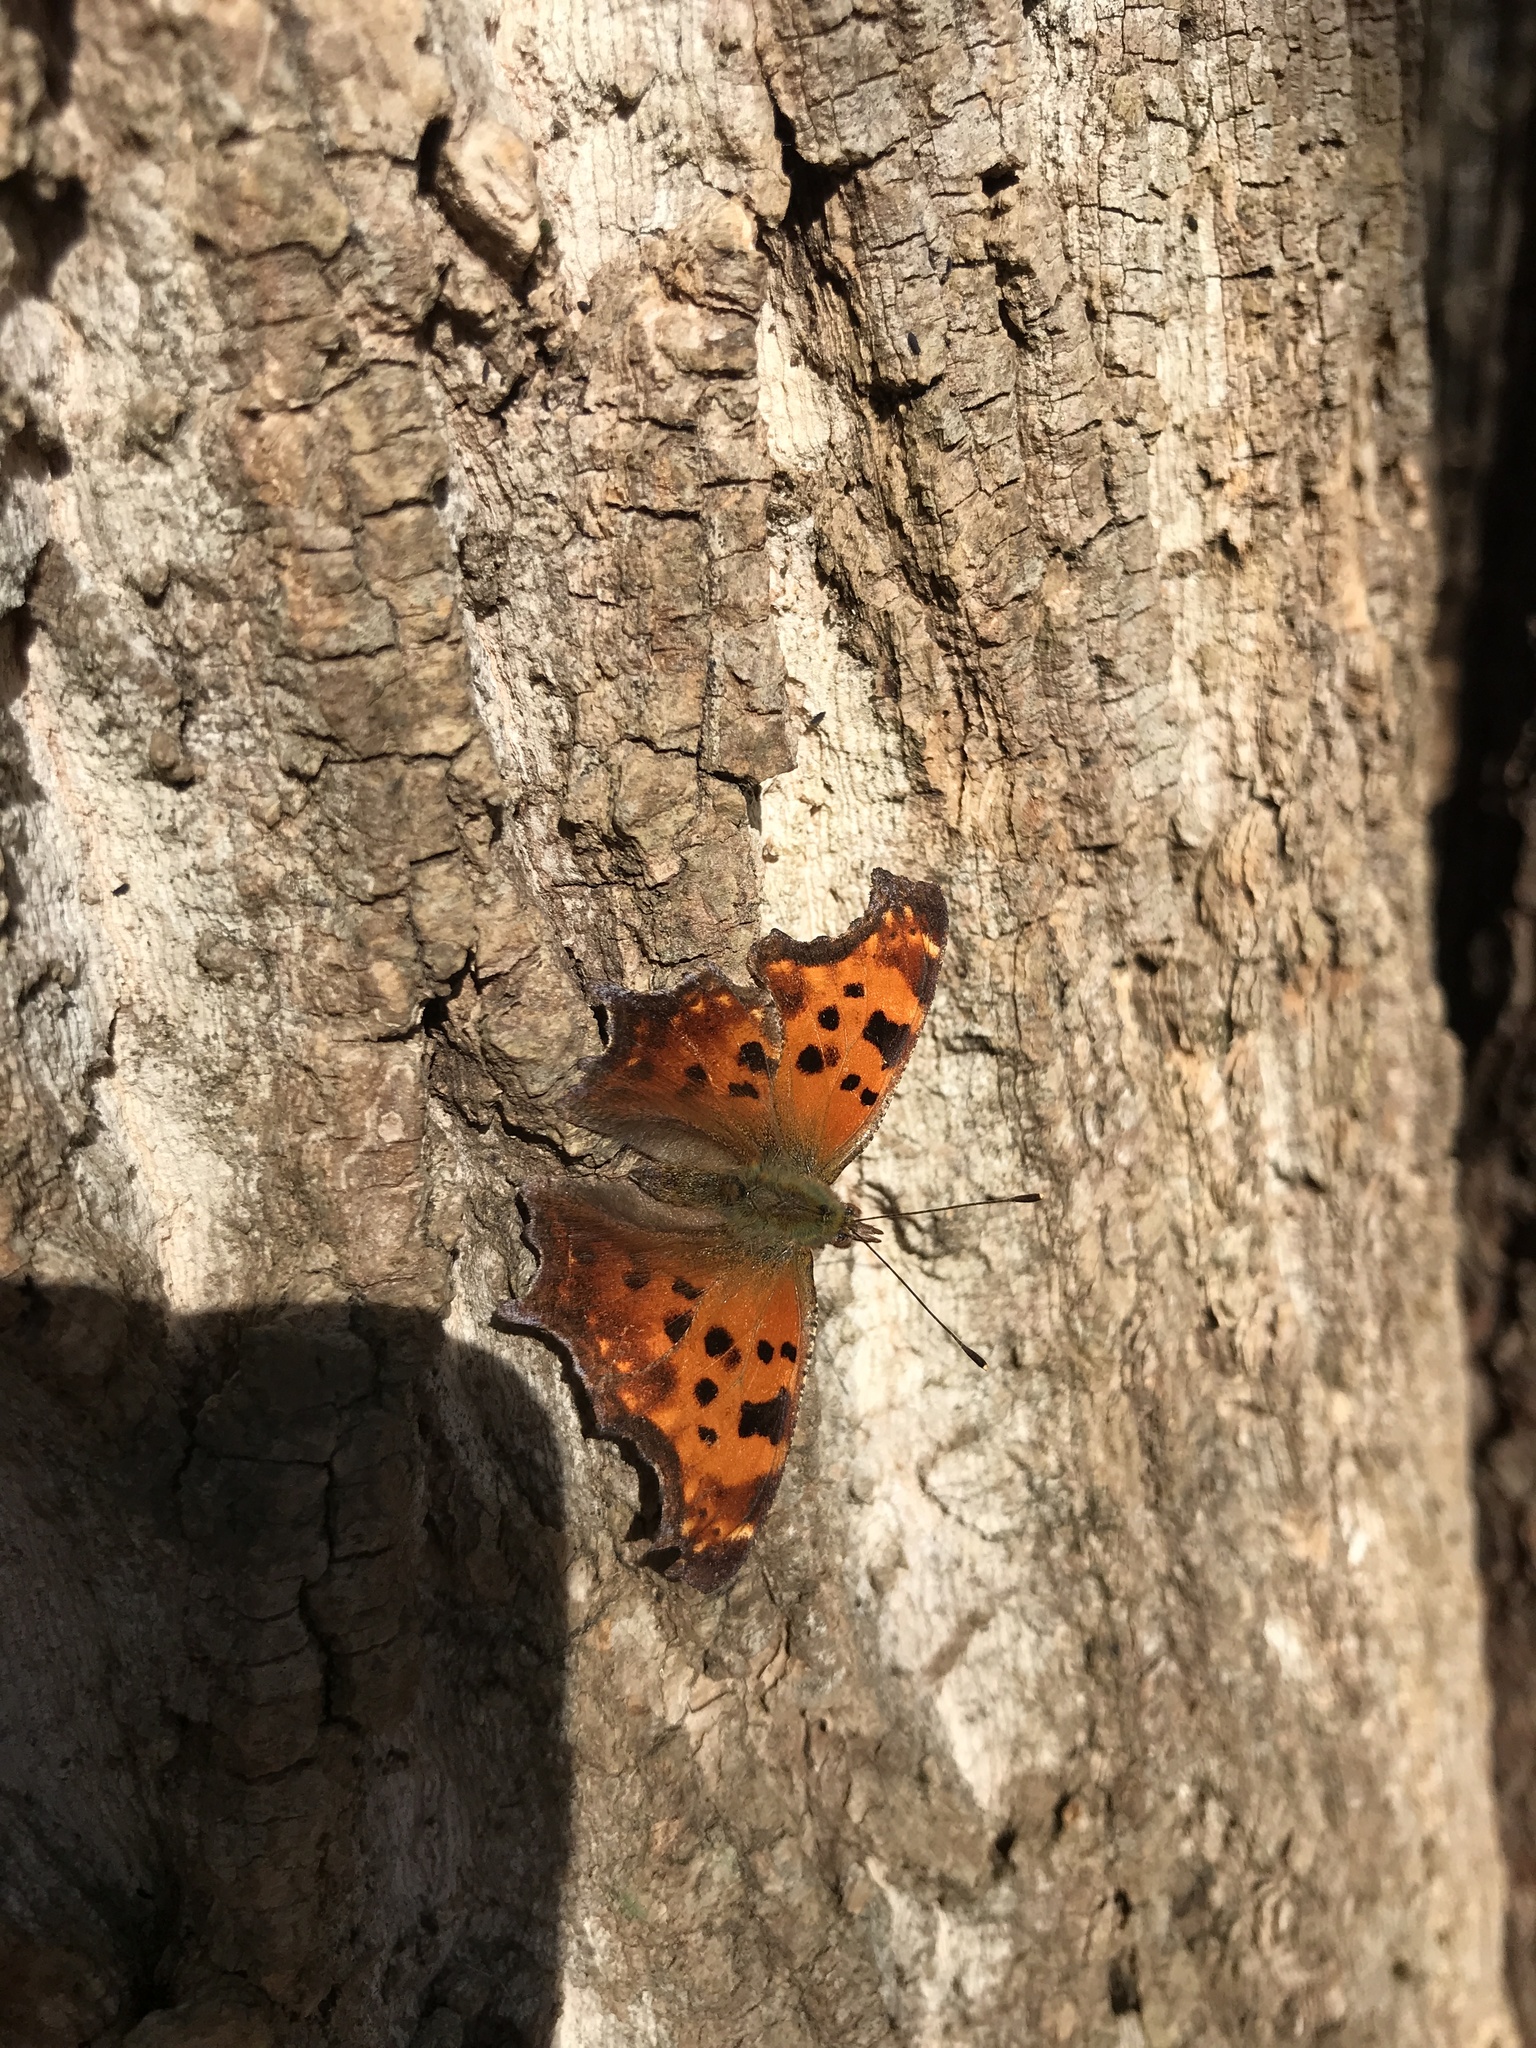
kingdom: Animalia
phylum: Arthropoda
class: Insecta
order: Lepidoptera
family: Nymphalidae
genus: Polygonia
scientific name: Polygonia comma
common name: Eastern comma
